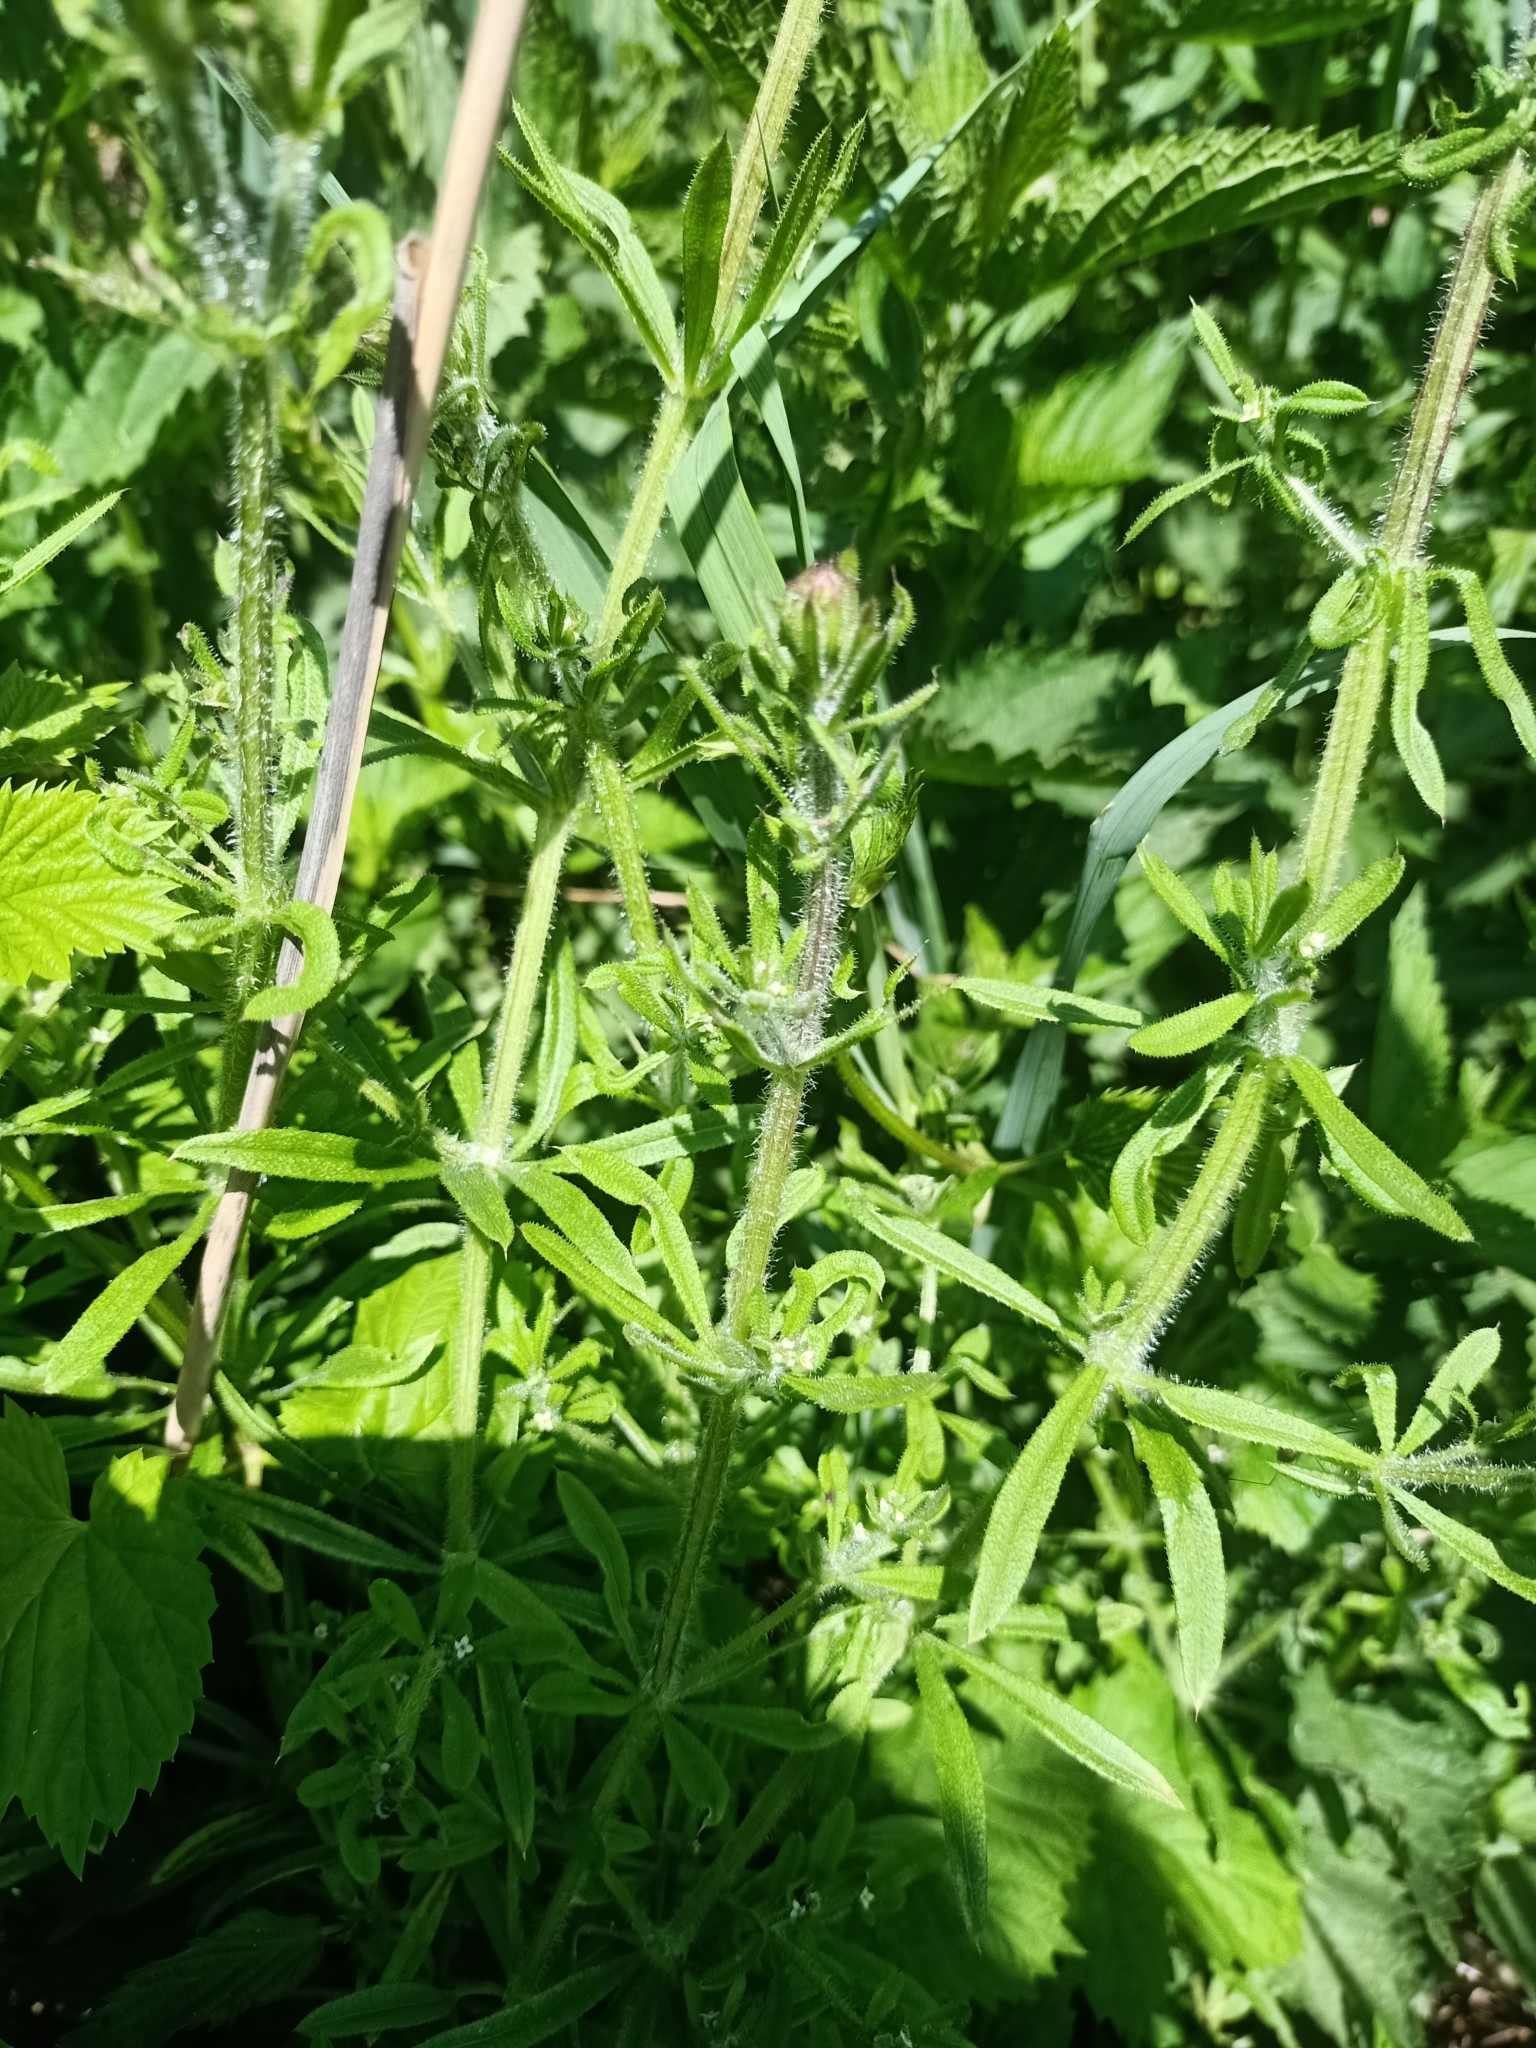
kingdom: Plantae
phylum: Tracheophyta
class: Magnoliopsida
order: Gentianales
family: Rubiaceae
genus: Galium
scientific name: Galium aparine
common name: Cleavers
